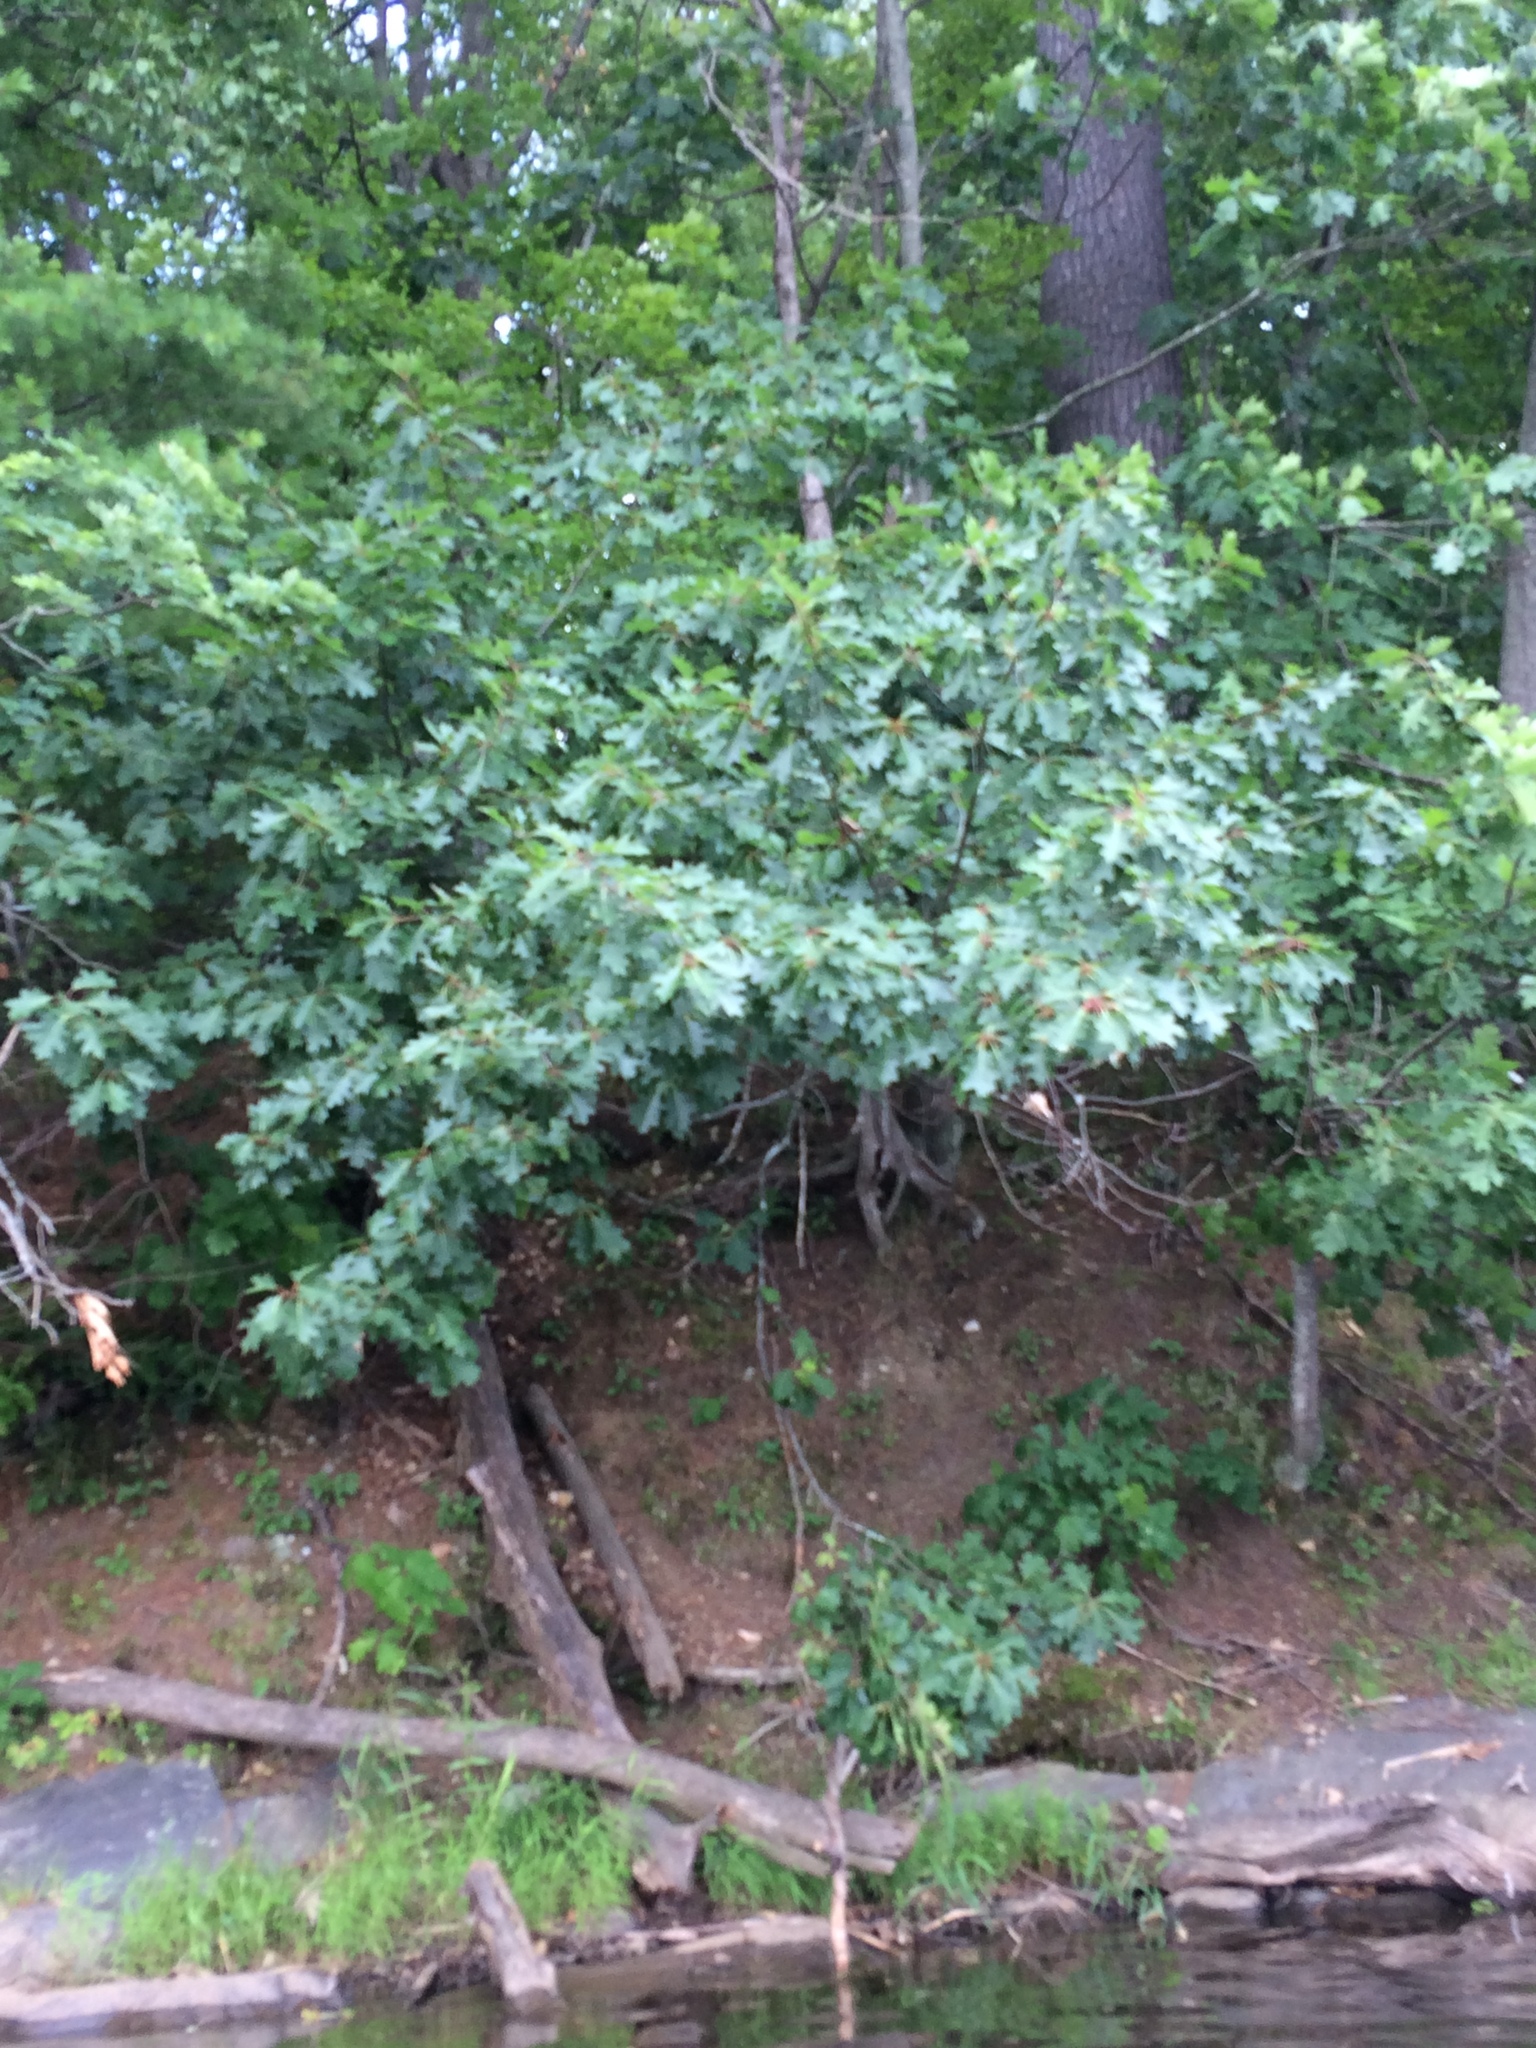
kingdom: Plantae
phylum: Tracheophyta
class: Magnoliopsida
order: Fagales
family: Fagaceae
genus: Quercus
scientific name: Quercus rubra
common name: Red oak
